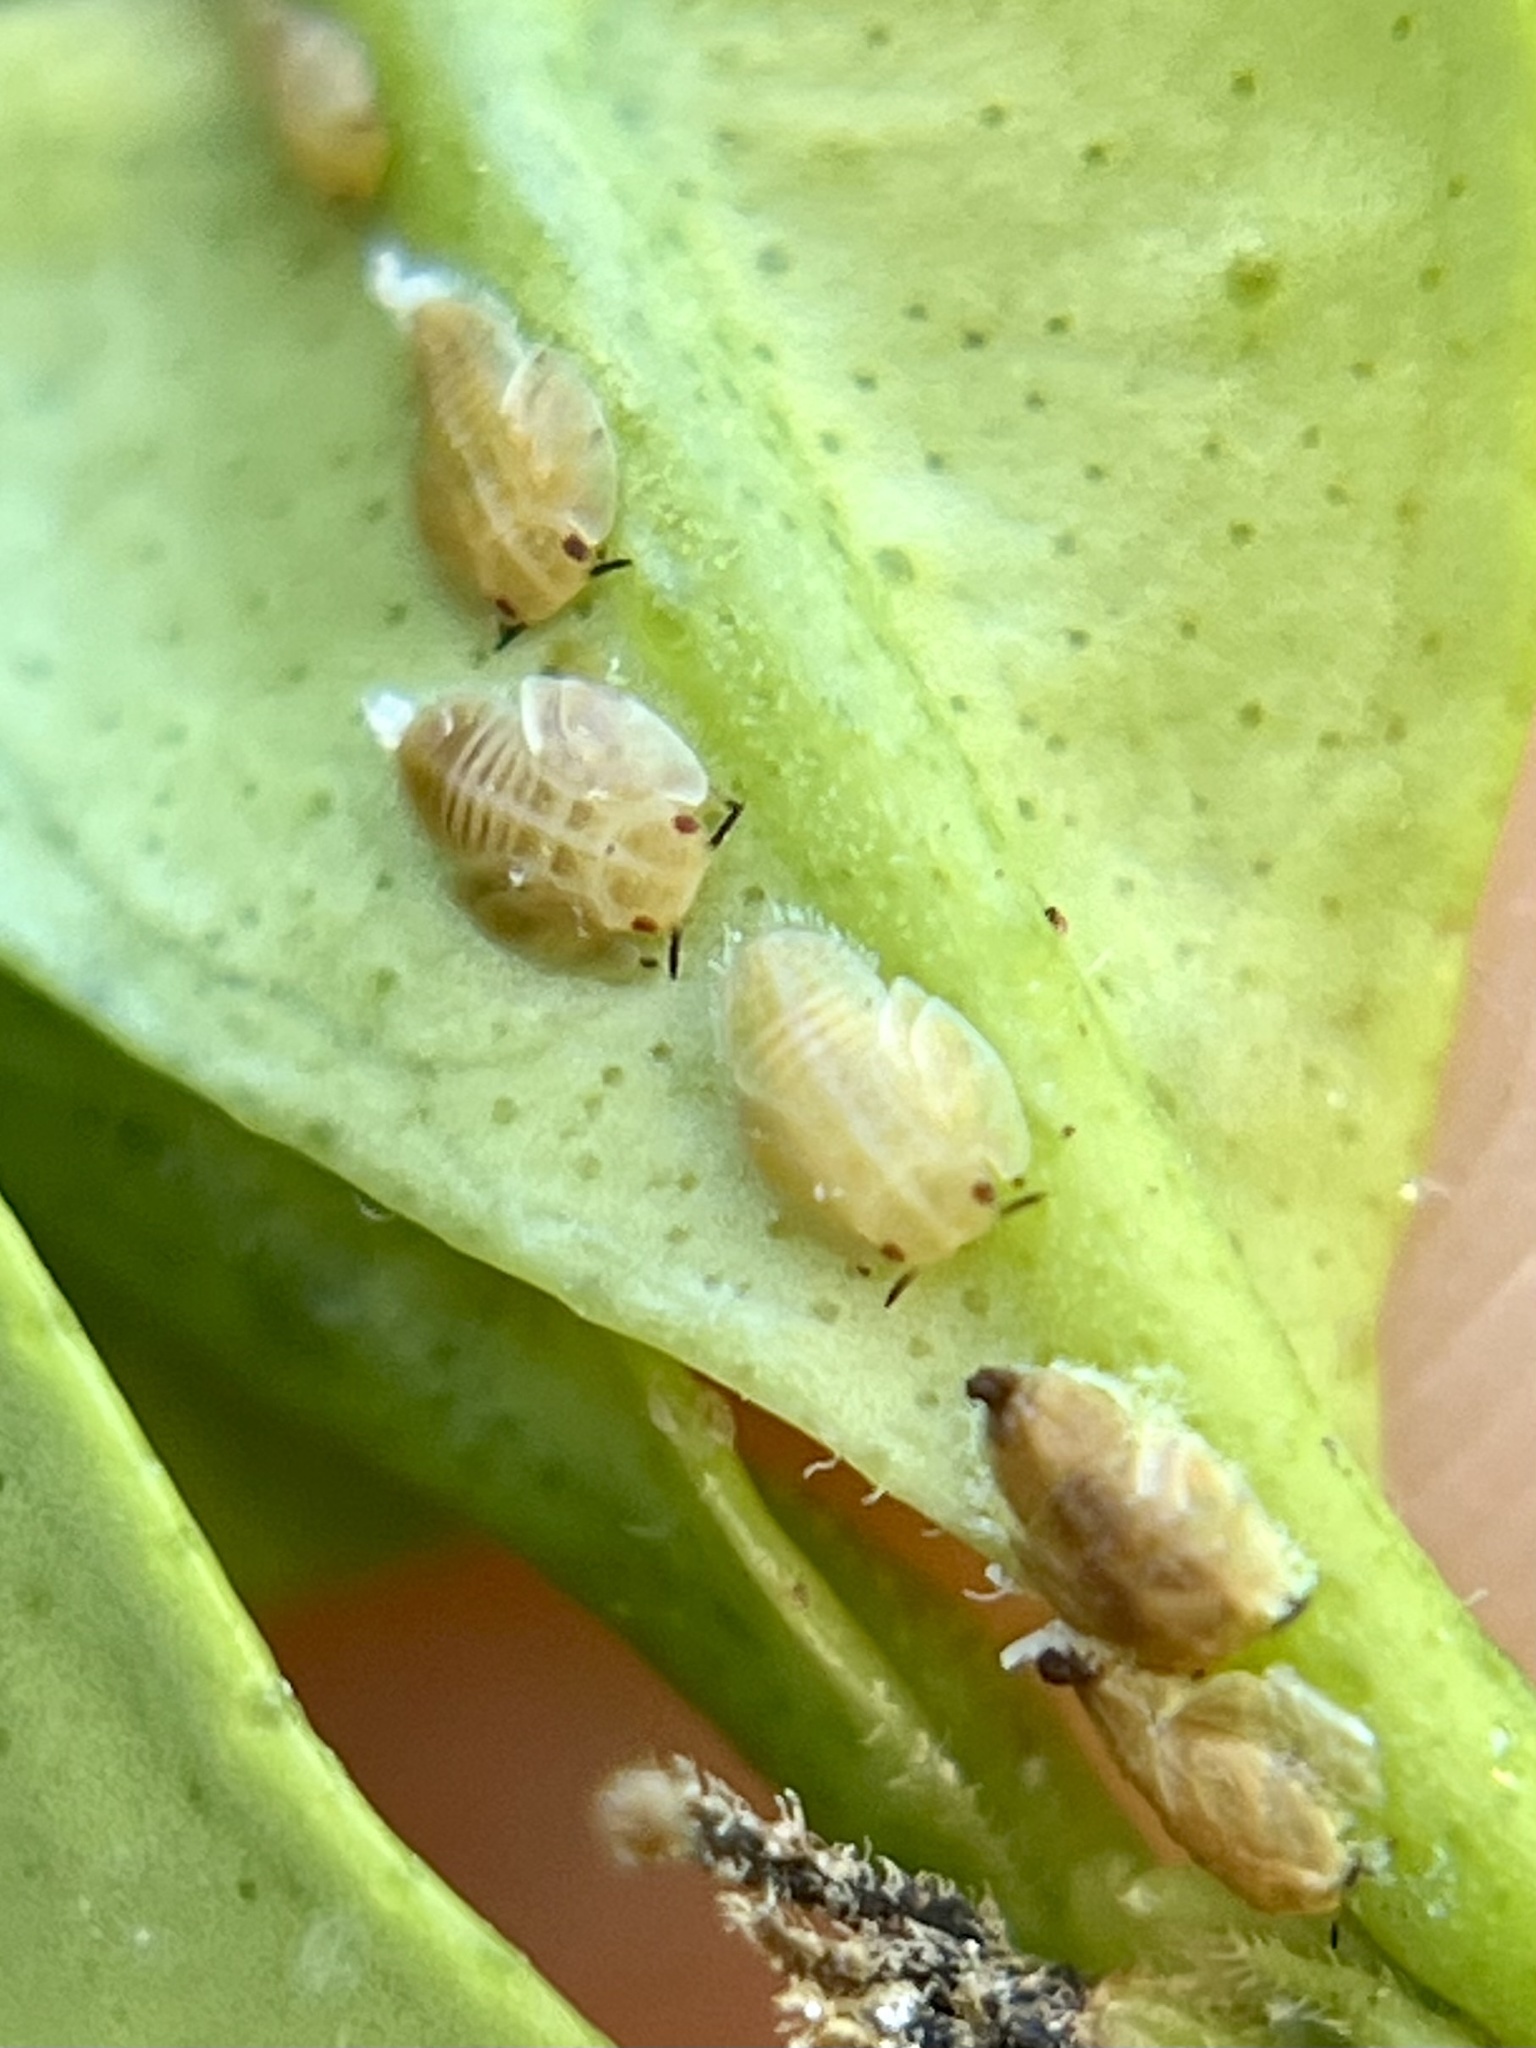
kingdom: Animalia
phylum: Arthropoda
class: Insecta
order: Hemiptera
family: Liviidae
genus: Diaphorina
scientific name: Diaphorina citri
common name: Asian citrus psyllid
